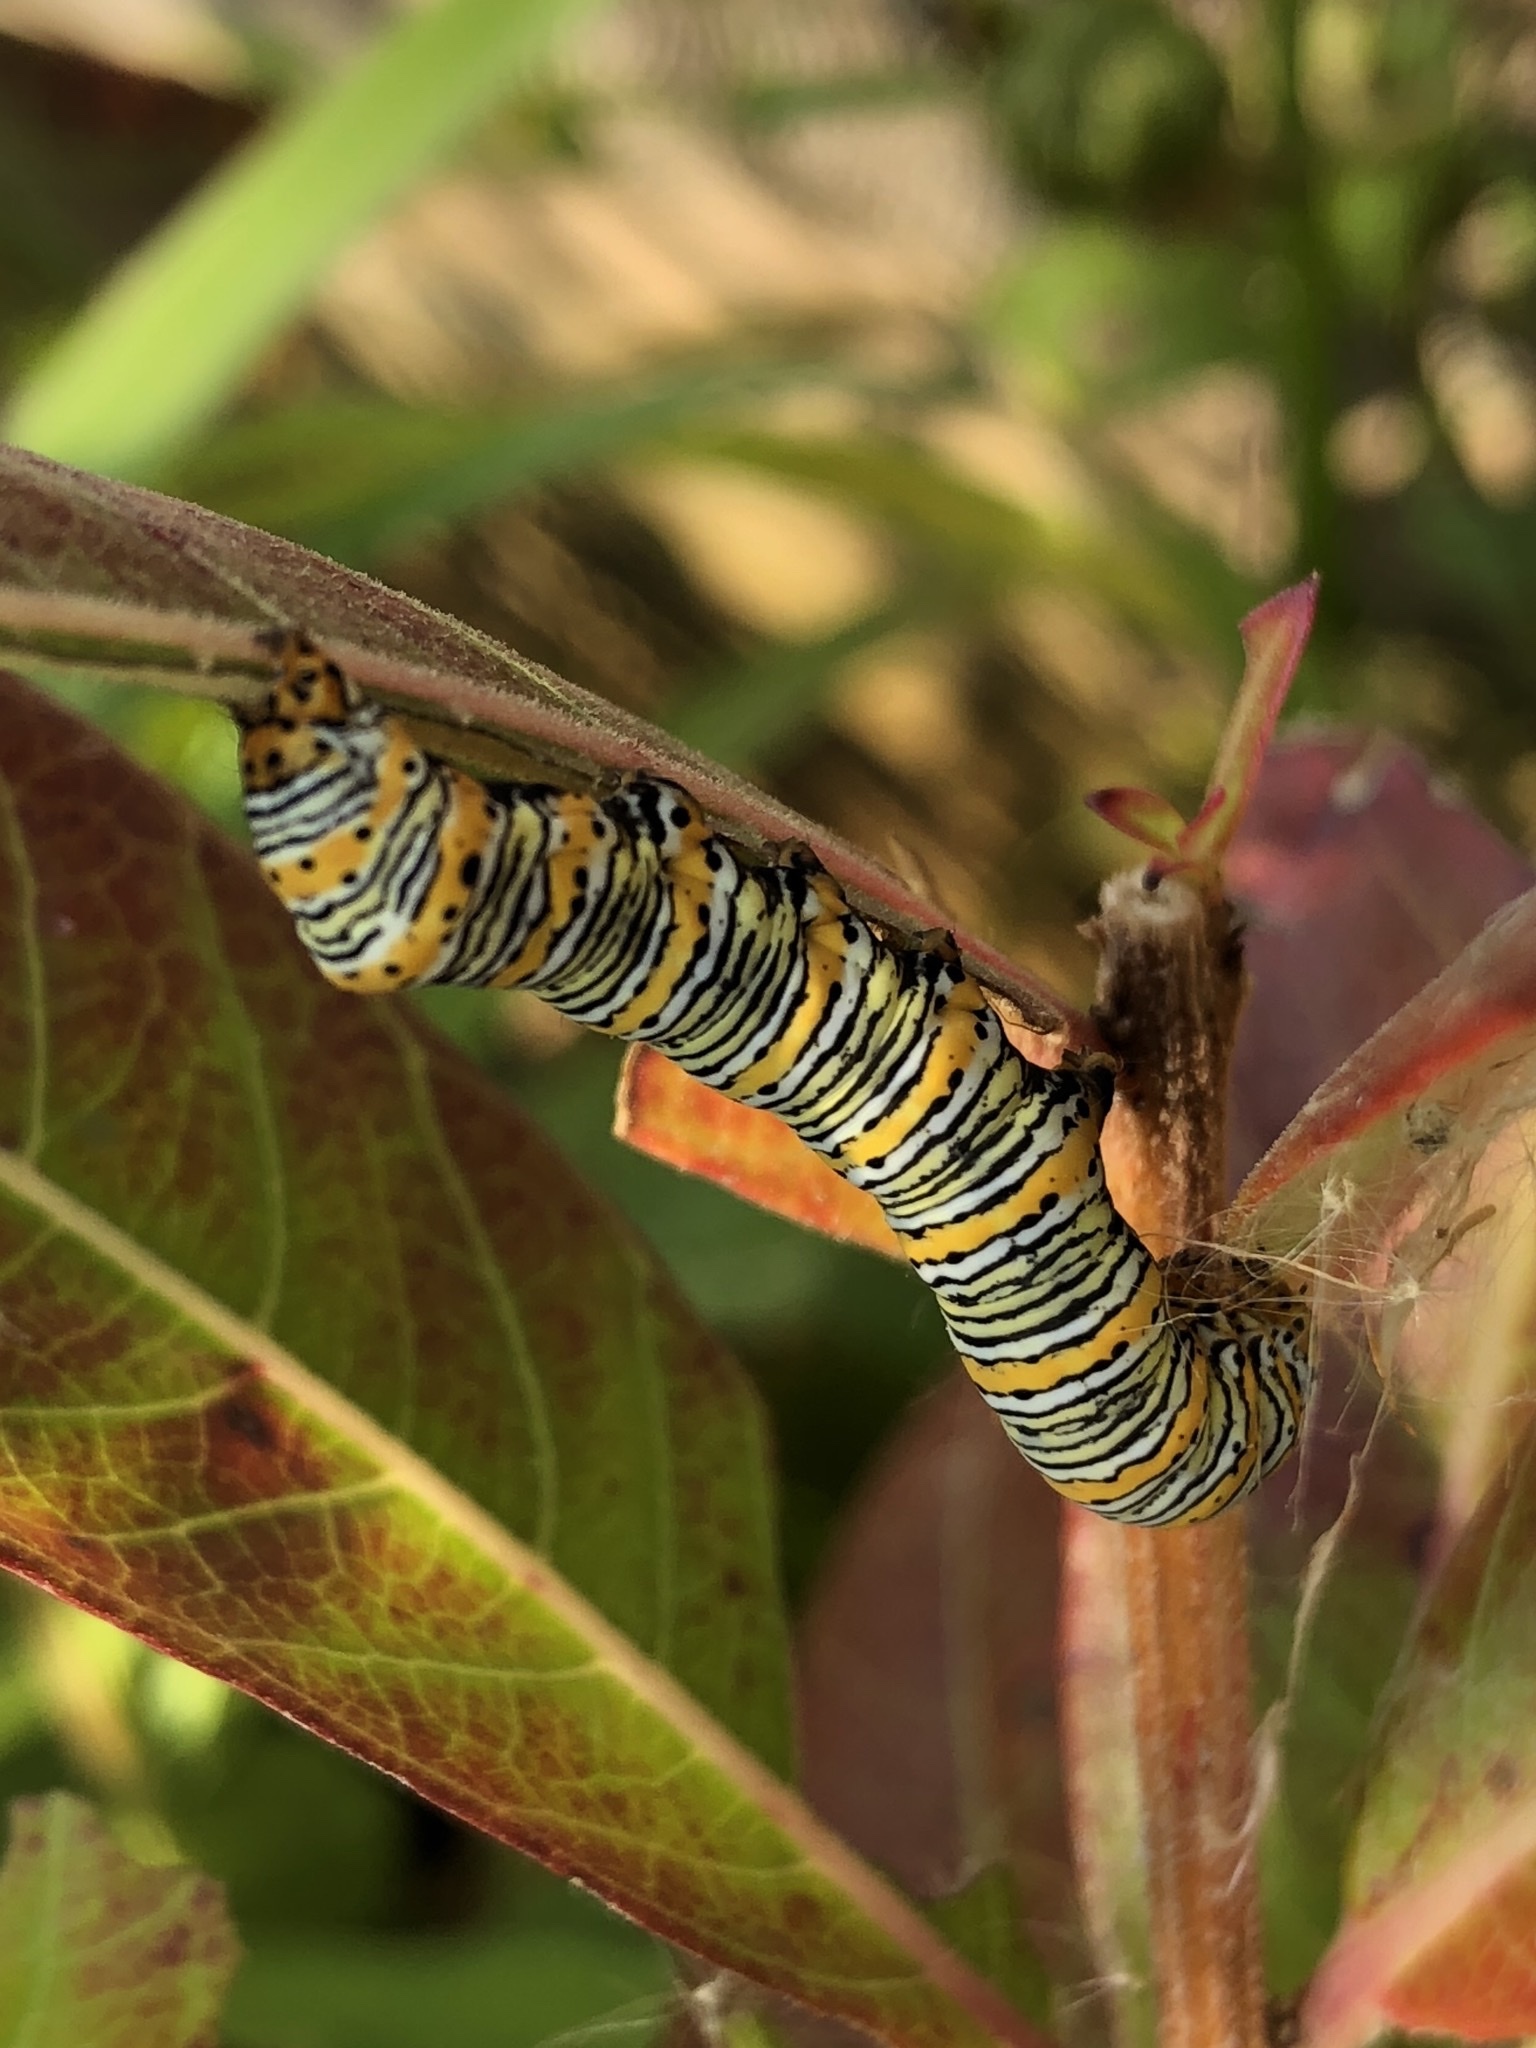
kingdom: Animalia
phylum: Arthropoda
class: Insecta
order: Lepidoptera
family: Noctuidae
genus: Eudryas
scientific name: Eudryas grata
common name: Beautiful wood-nymph
